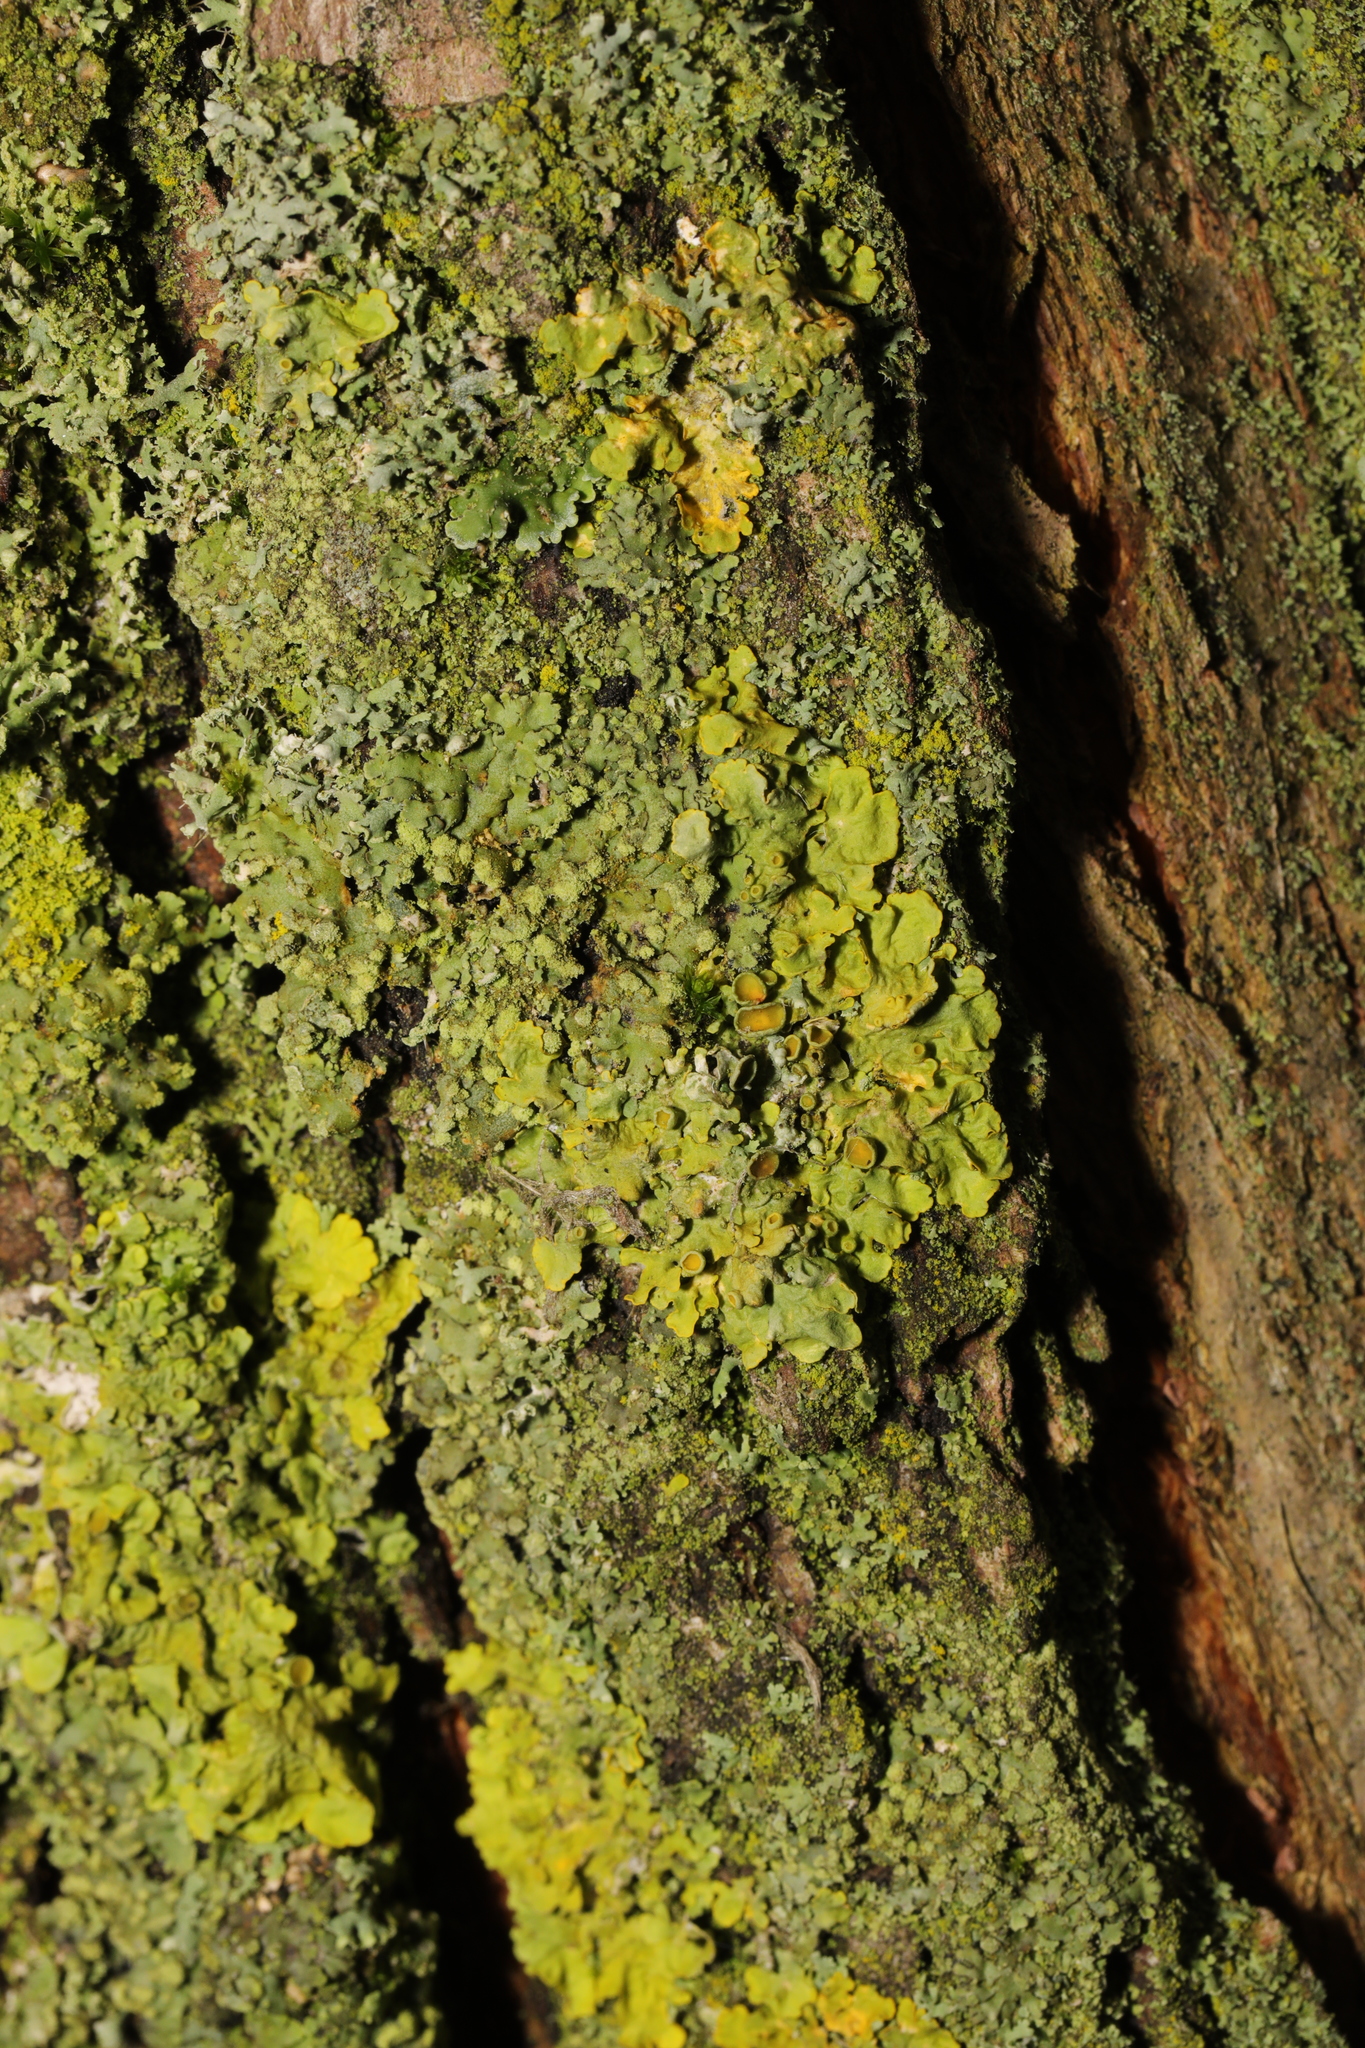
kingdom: Fungi
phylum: Ascomycota
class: Lecanoromycetes
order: Teloschistales
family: Teloschistaceae
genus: Xanthoria
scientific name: Xanthoria parietina
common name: Common orange lichen
